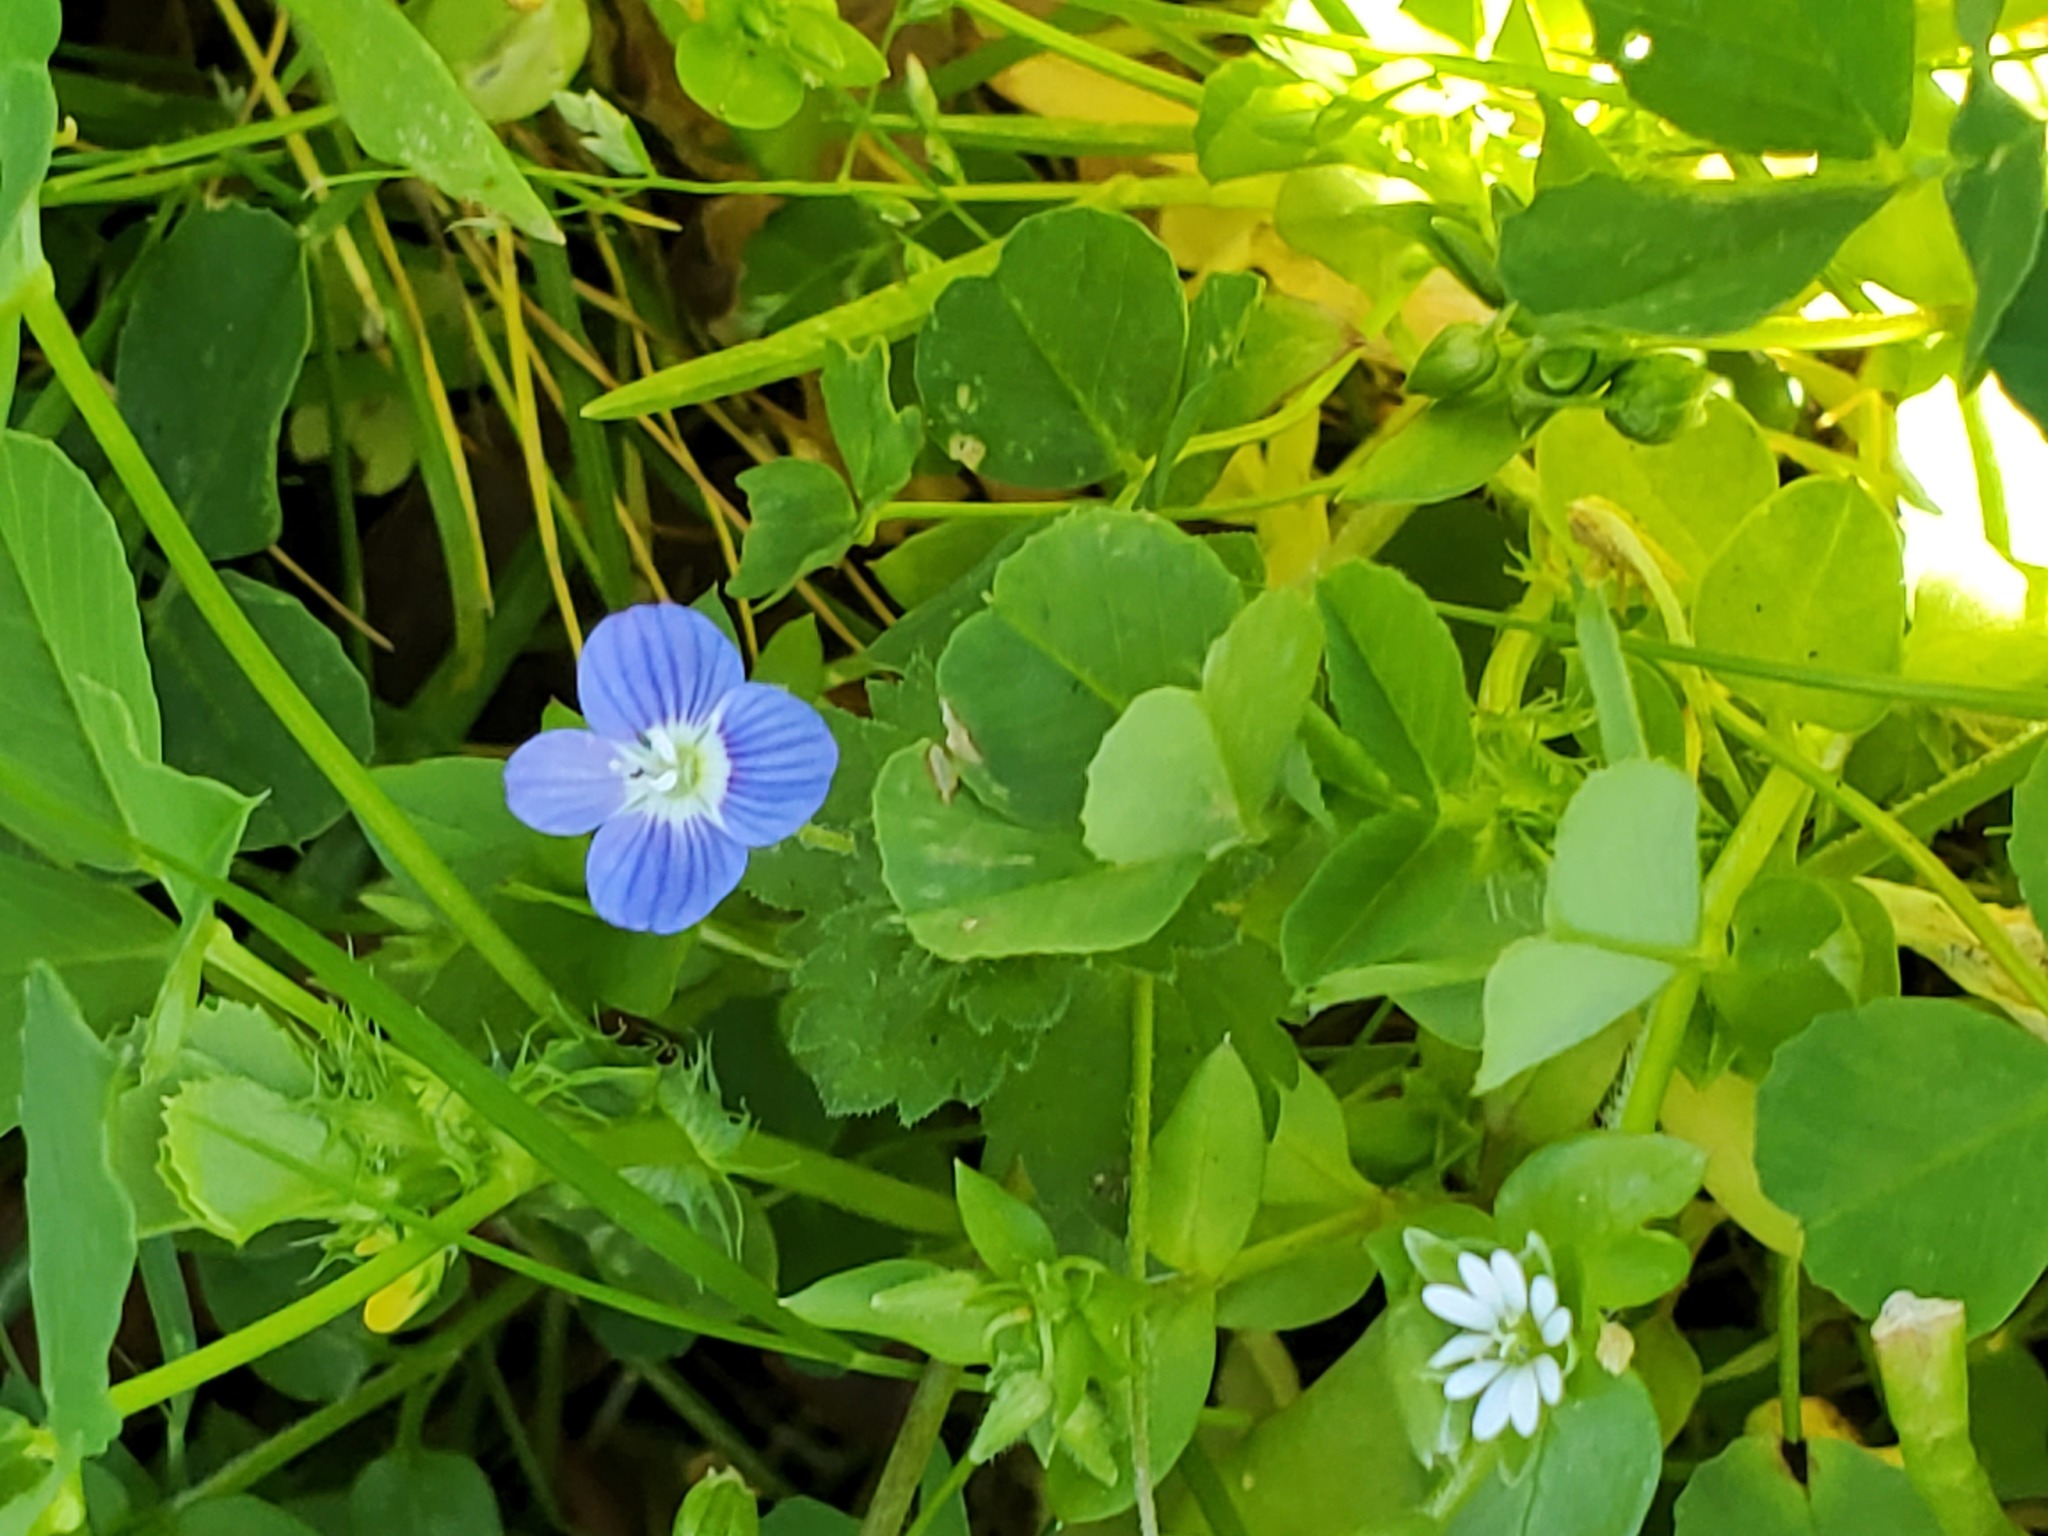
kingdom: Plantae
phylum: Tracheophyta
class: Magnoliopsida
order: Lamiales
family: Plantaginaceae
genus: Veronica
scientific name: Veronica persica
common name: Common field-speedwell
